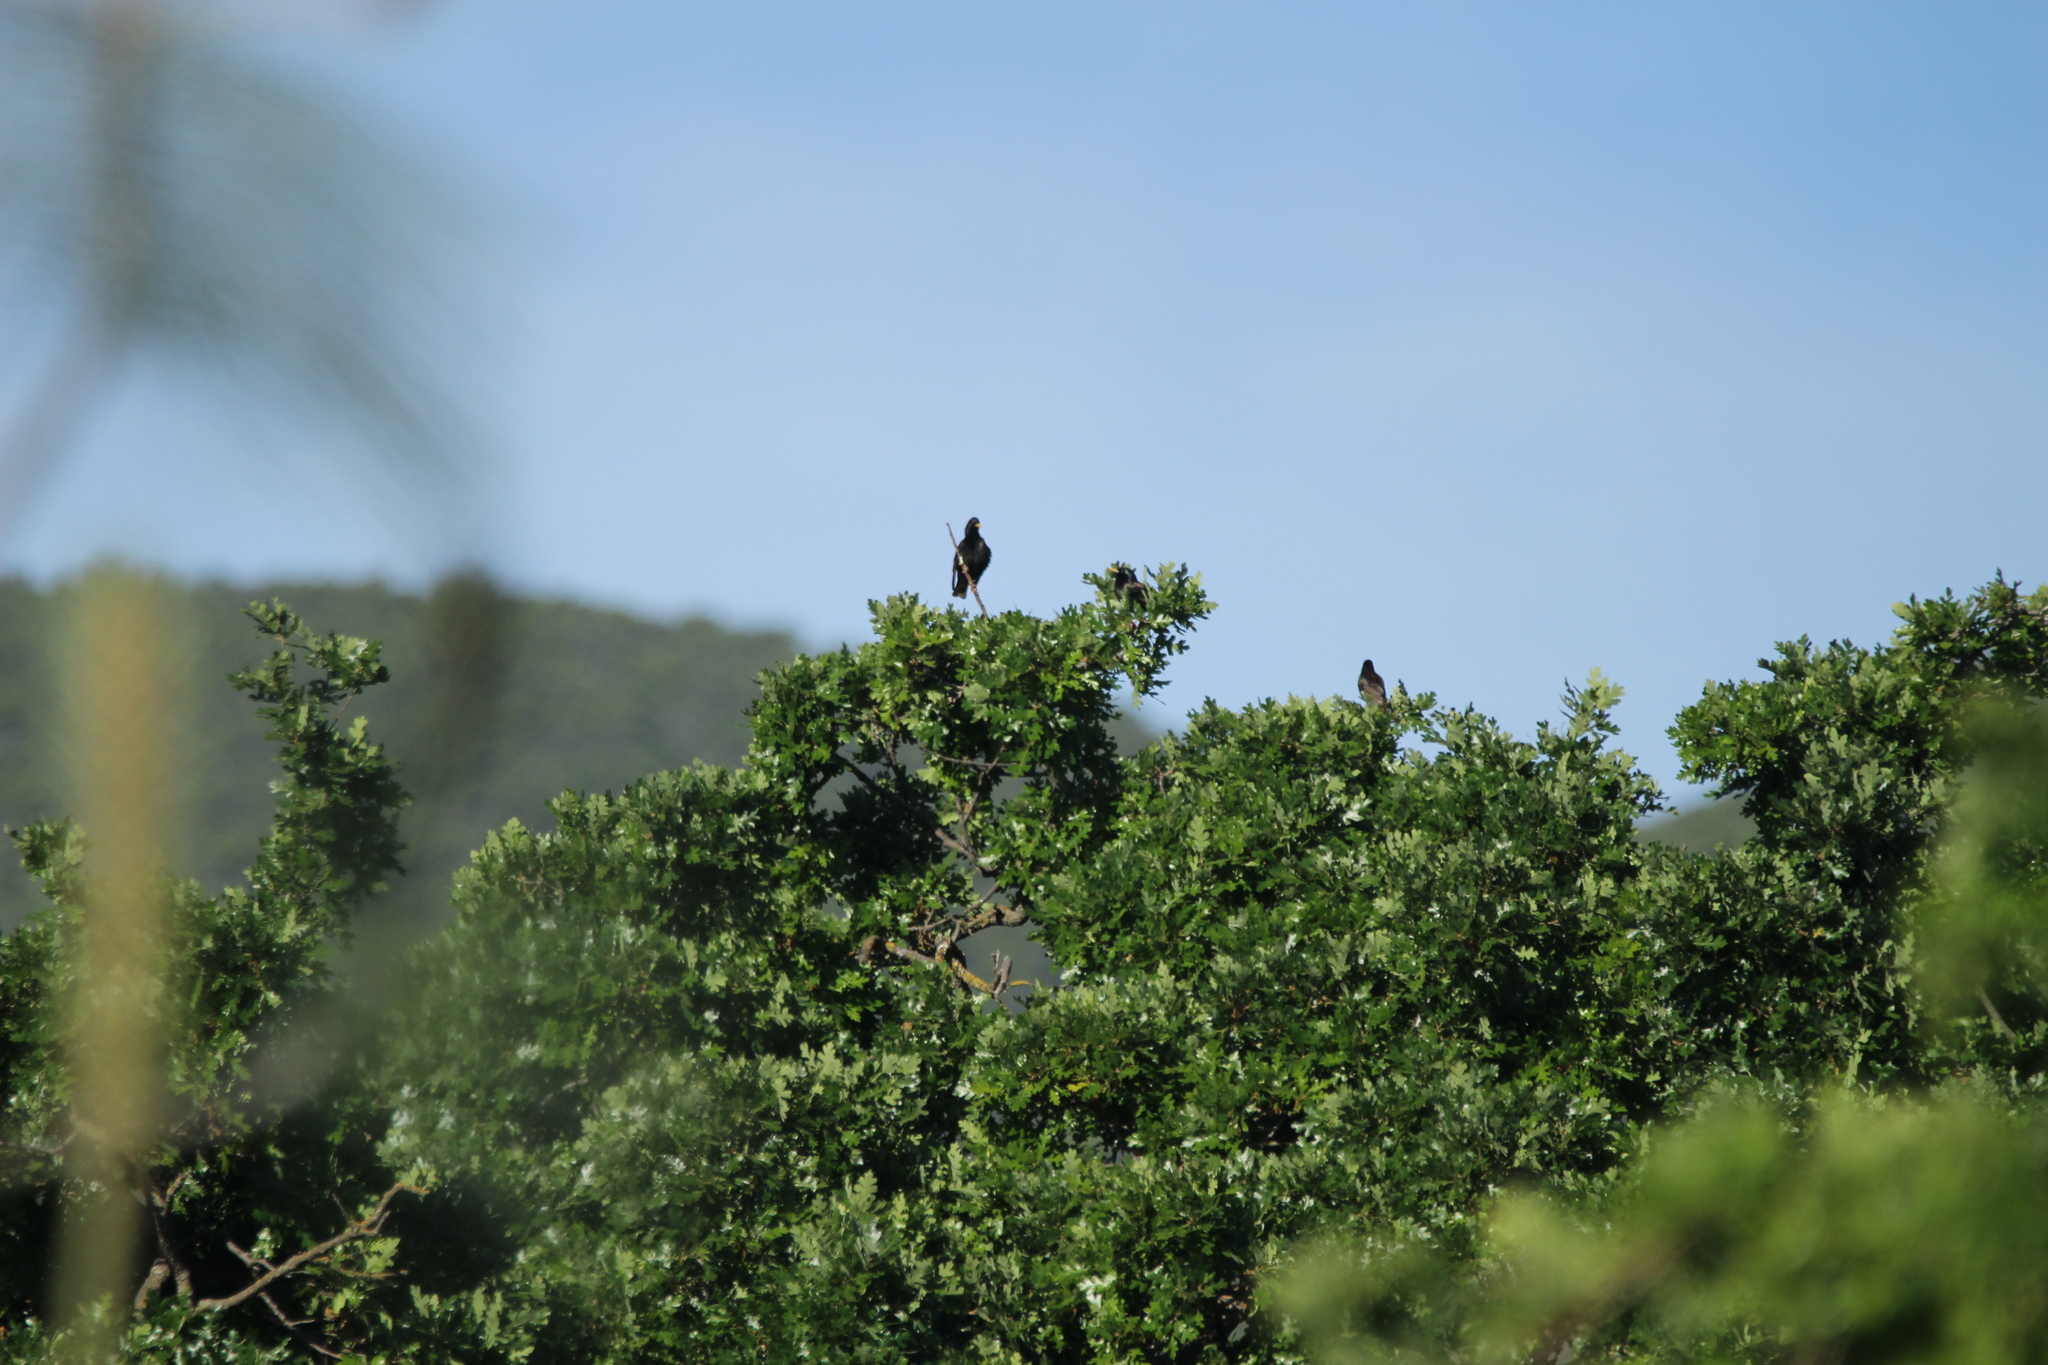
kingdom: Animalia
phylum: Chordata
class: Aves
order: Passeriformes
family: Sturnidae
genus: Sturnus
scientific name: Sturnus vulgaris
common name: Common starling
